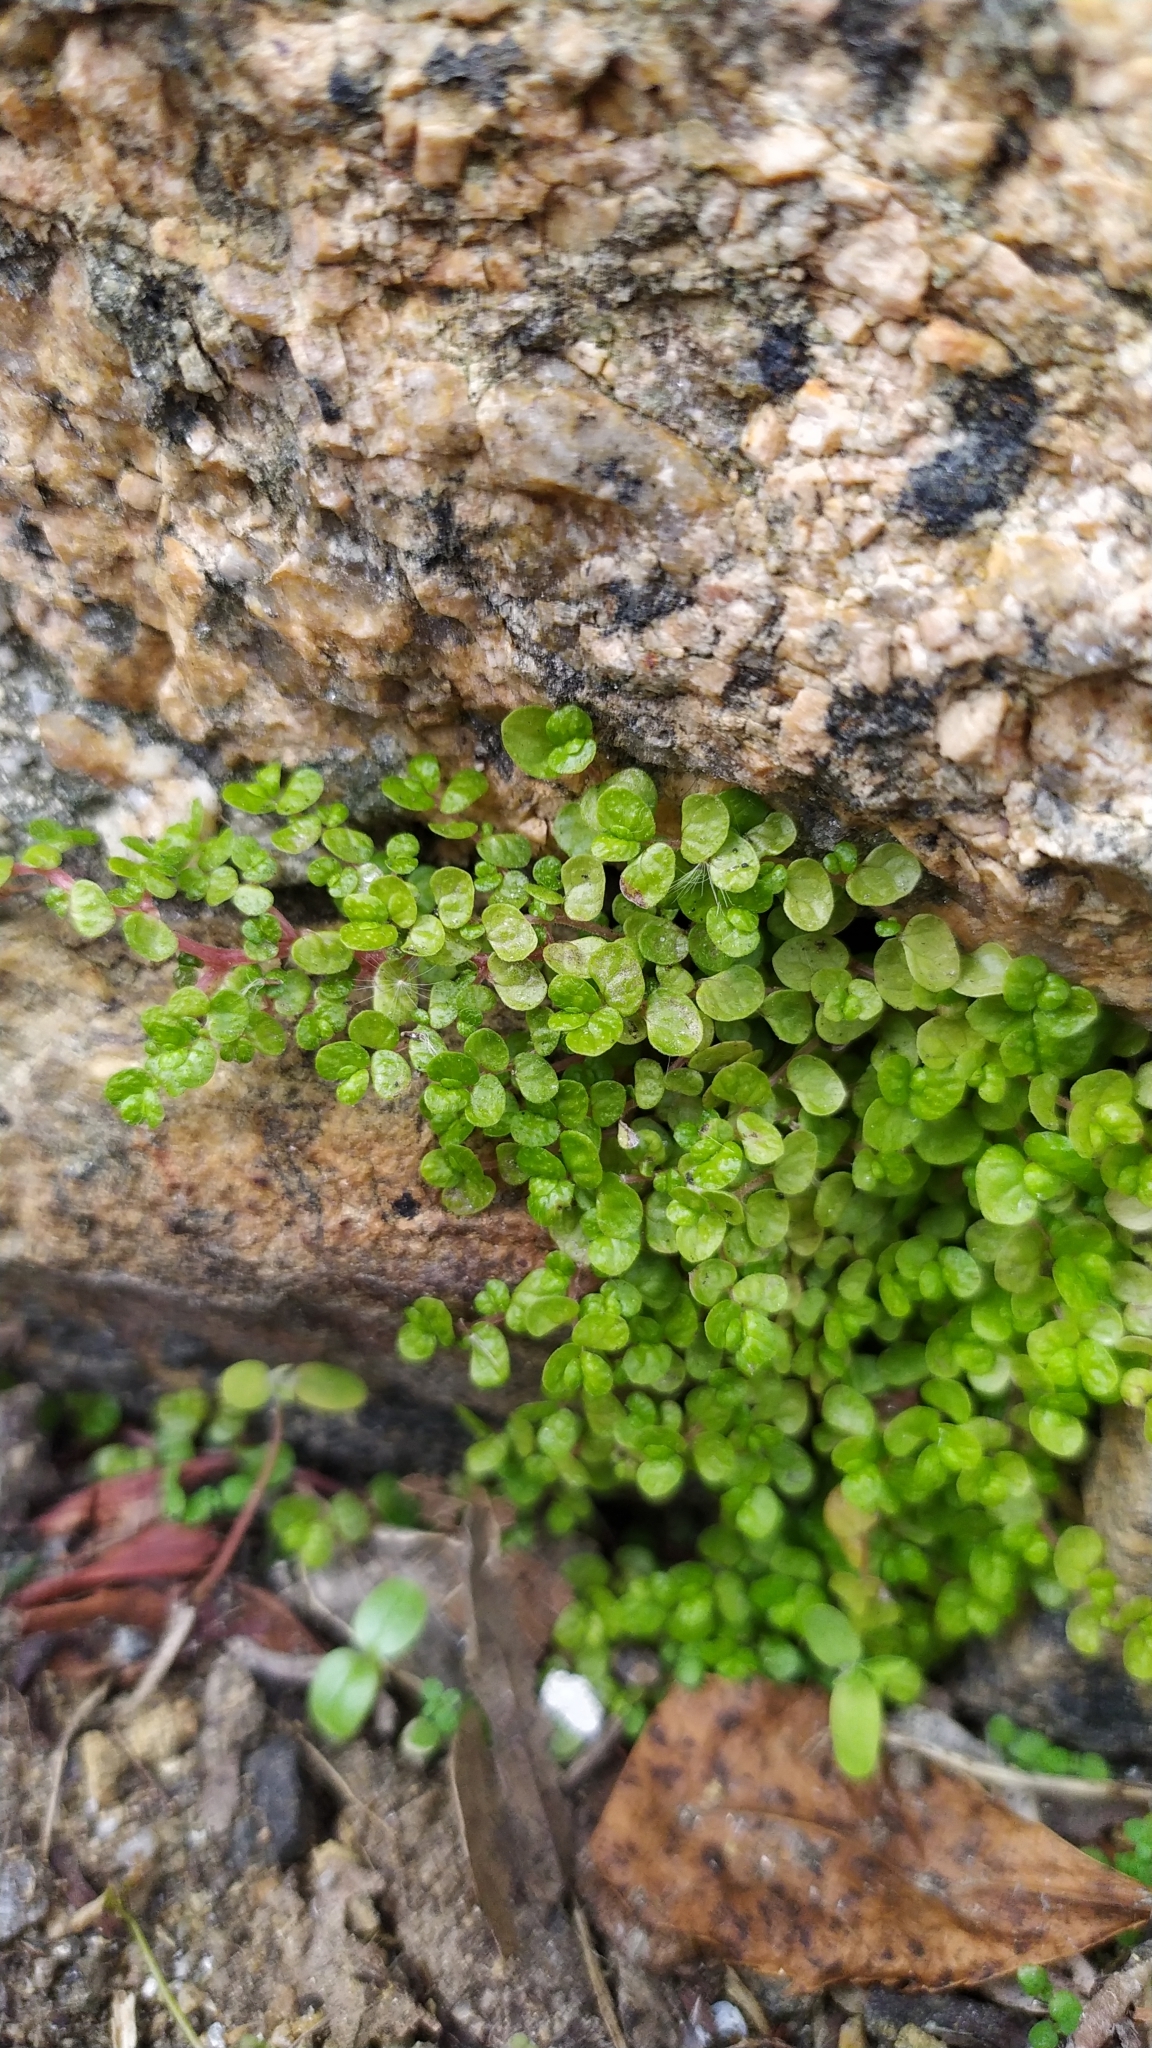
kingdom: Plantae
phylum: Tracheophyta
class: Magnoliopsida
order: Rosales
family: Urticaceae
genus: Soleirolia
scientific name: Soleirolia soleirolii
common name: Mind-your-own-business
